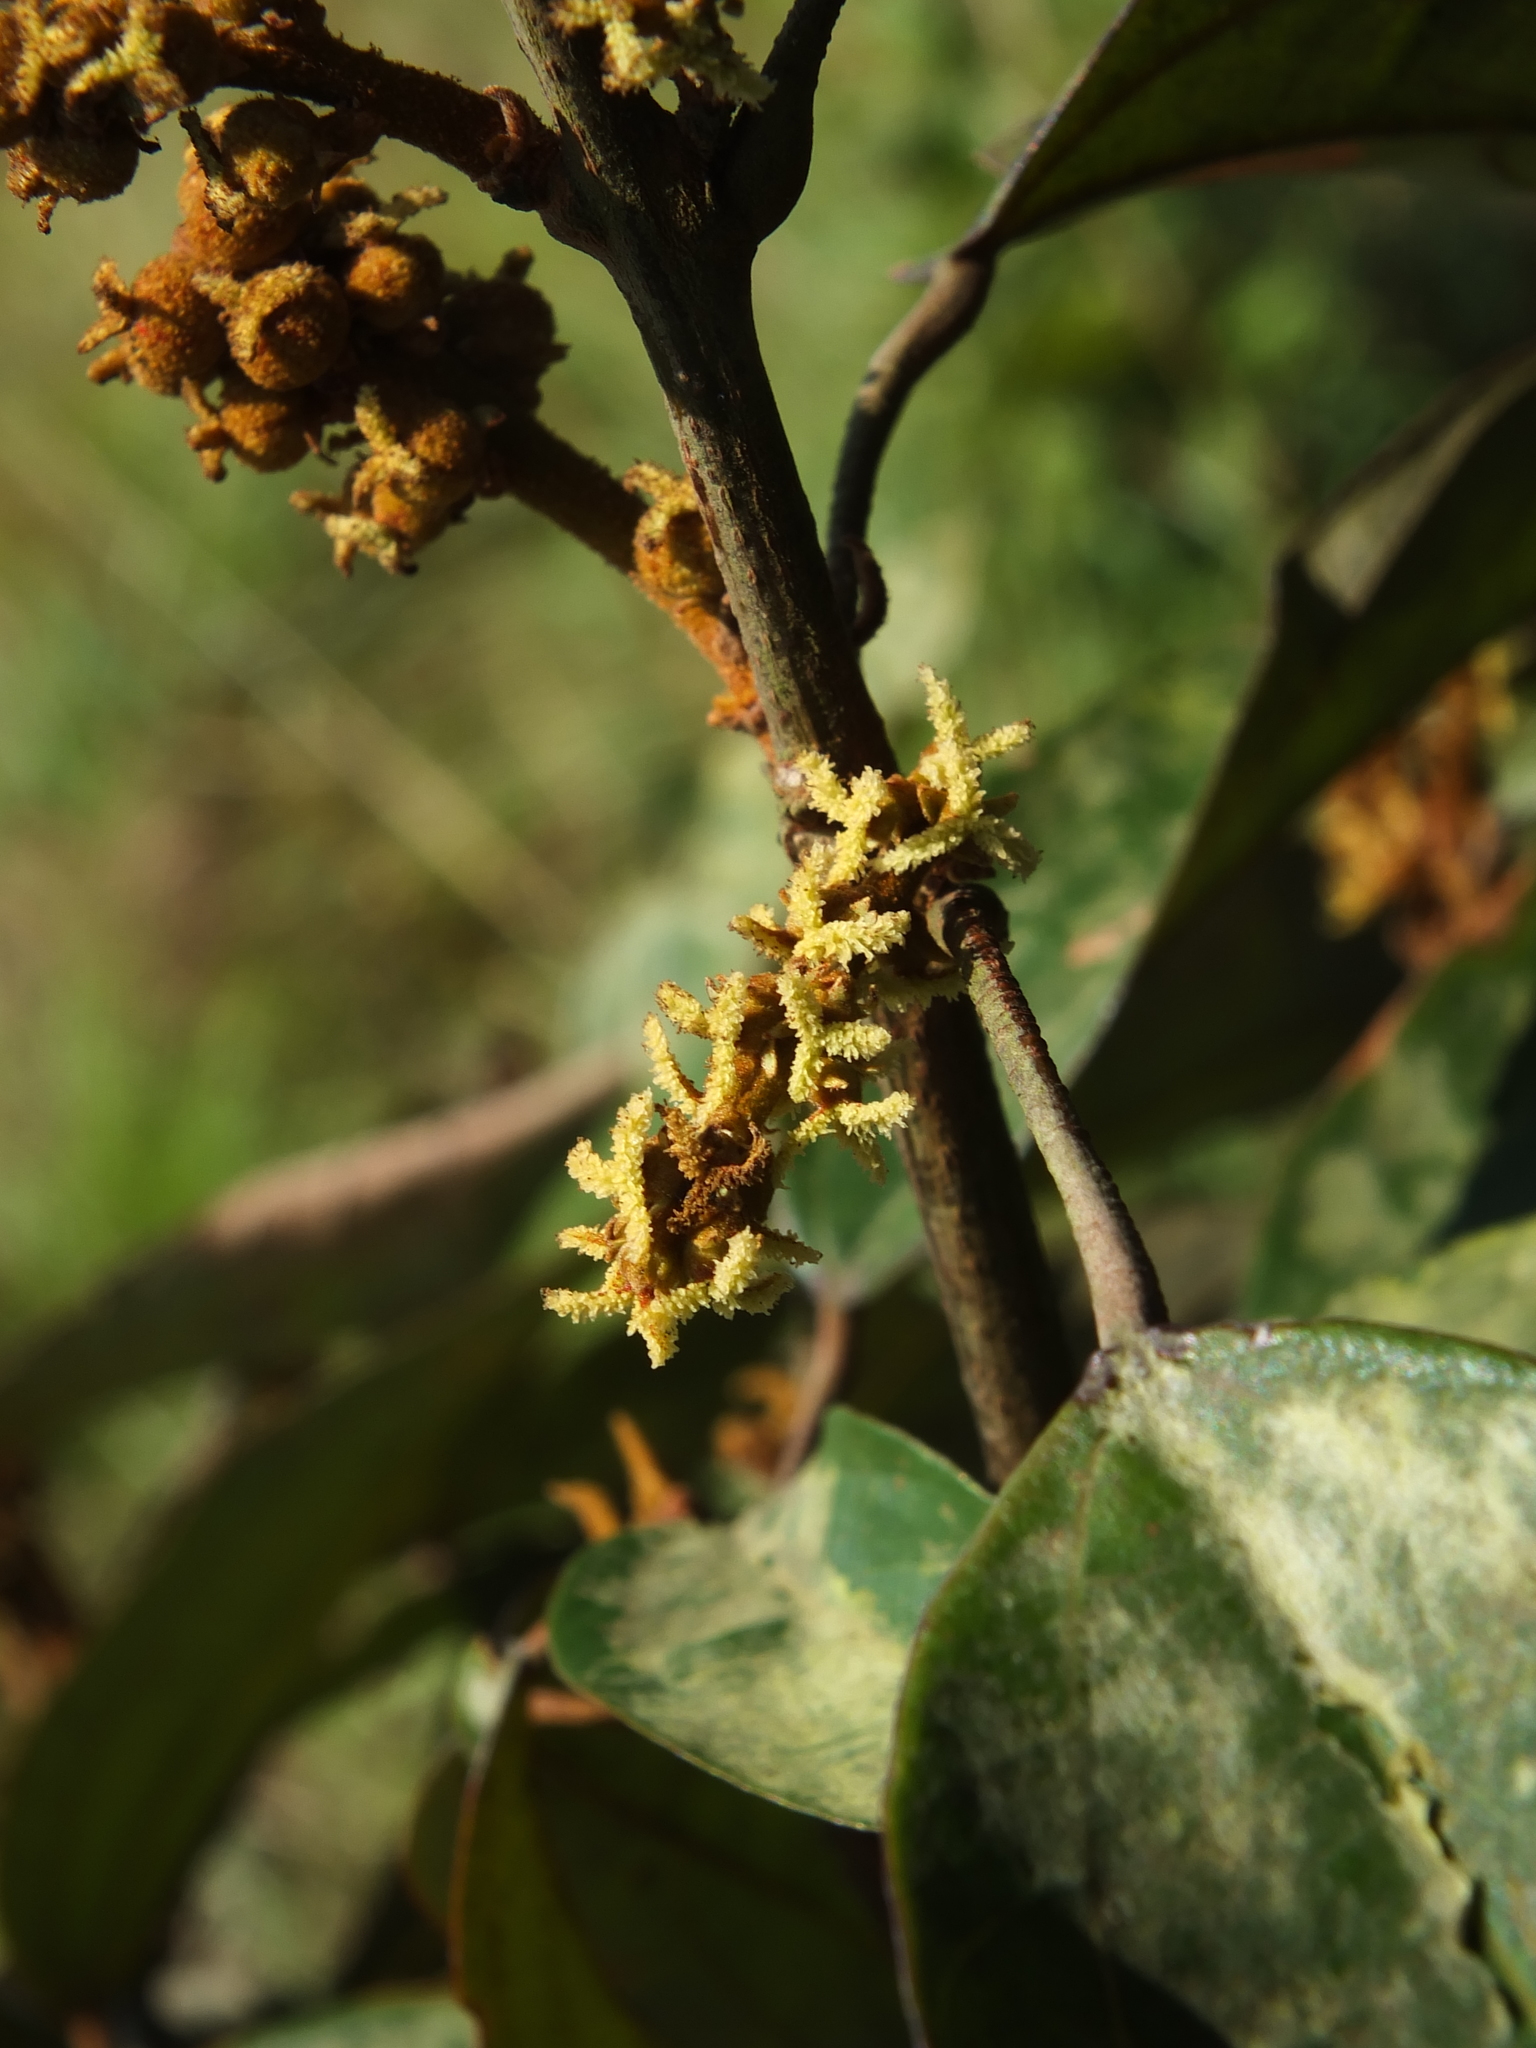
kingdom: Plantae
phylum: Tracheophyta
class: Magnoliopsida
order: Malpighiales
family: Euphorbiaceae
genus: Mallotus
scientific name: Mallotus philippensis
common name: Kamala tree
